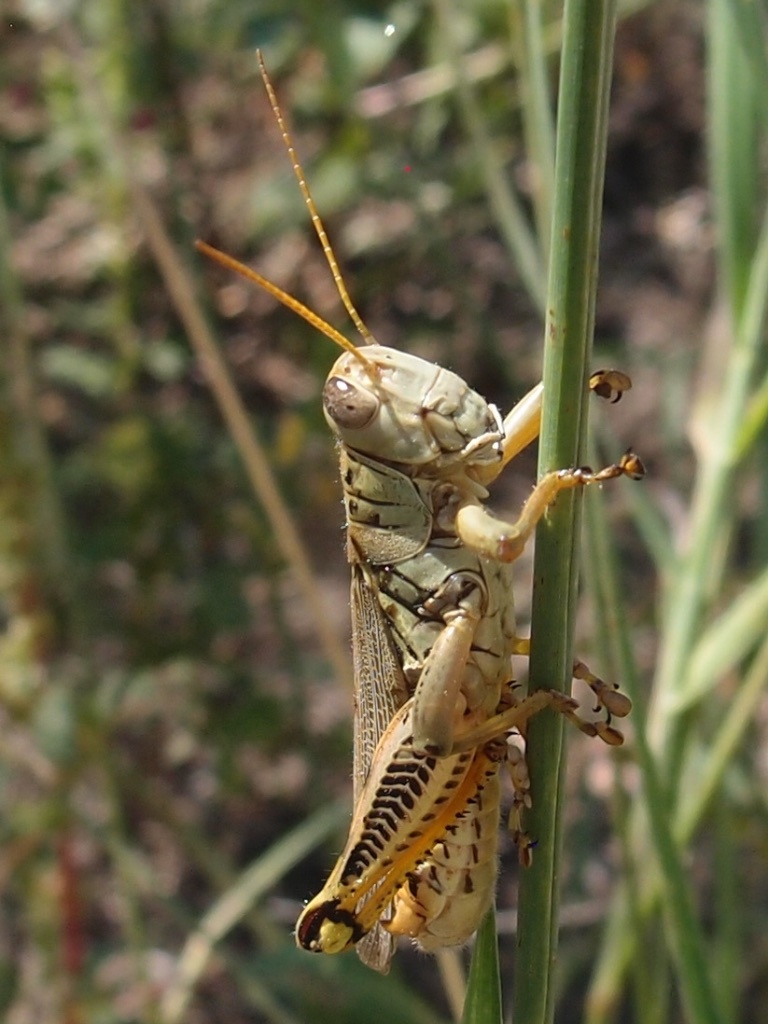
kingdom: Animalia
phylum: Arthropoda
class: Insecta
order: Orthoptera
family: Acrididae
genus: Melanoplus
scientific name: Melanoplus differentialis
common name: Differential grasshopper
